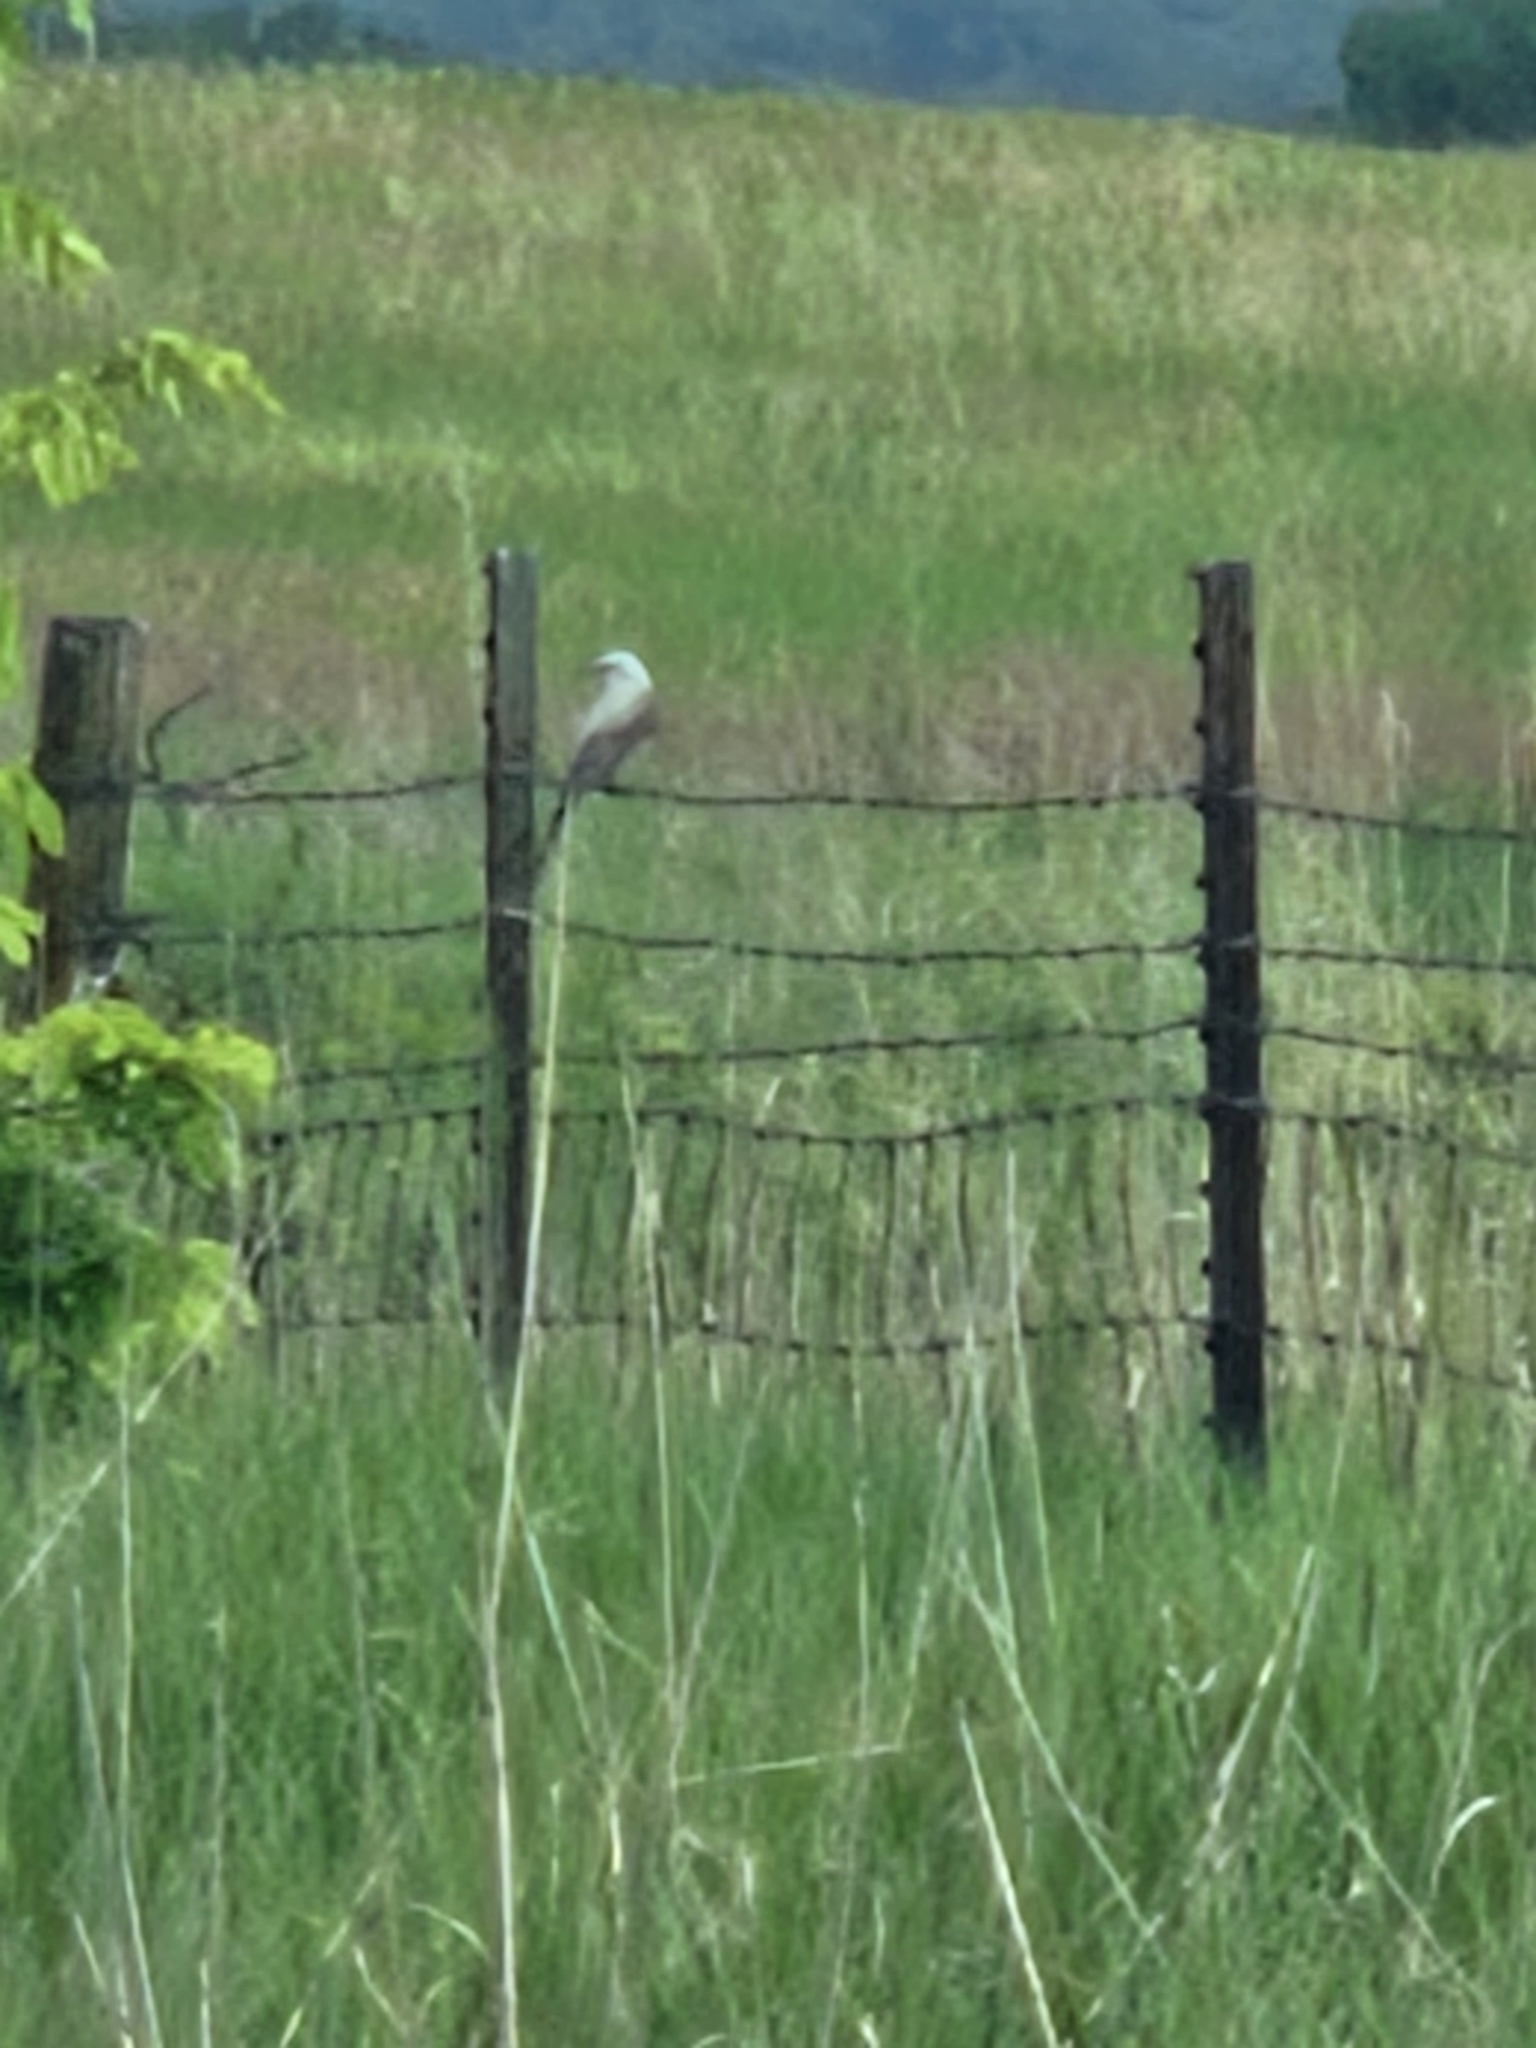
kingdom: Animalia
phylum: Chordata
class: Aves
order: Passeriformes
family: Tyrannidae
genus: Tyrannus
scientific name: Tyrannus forficatus
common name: Scissor-tailed flycatcher
